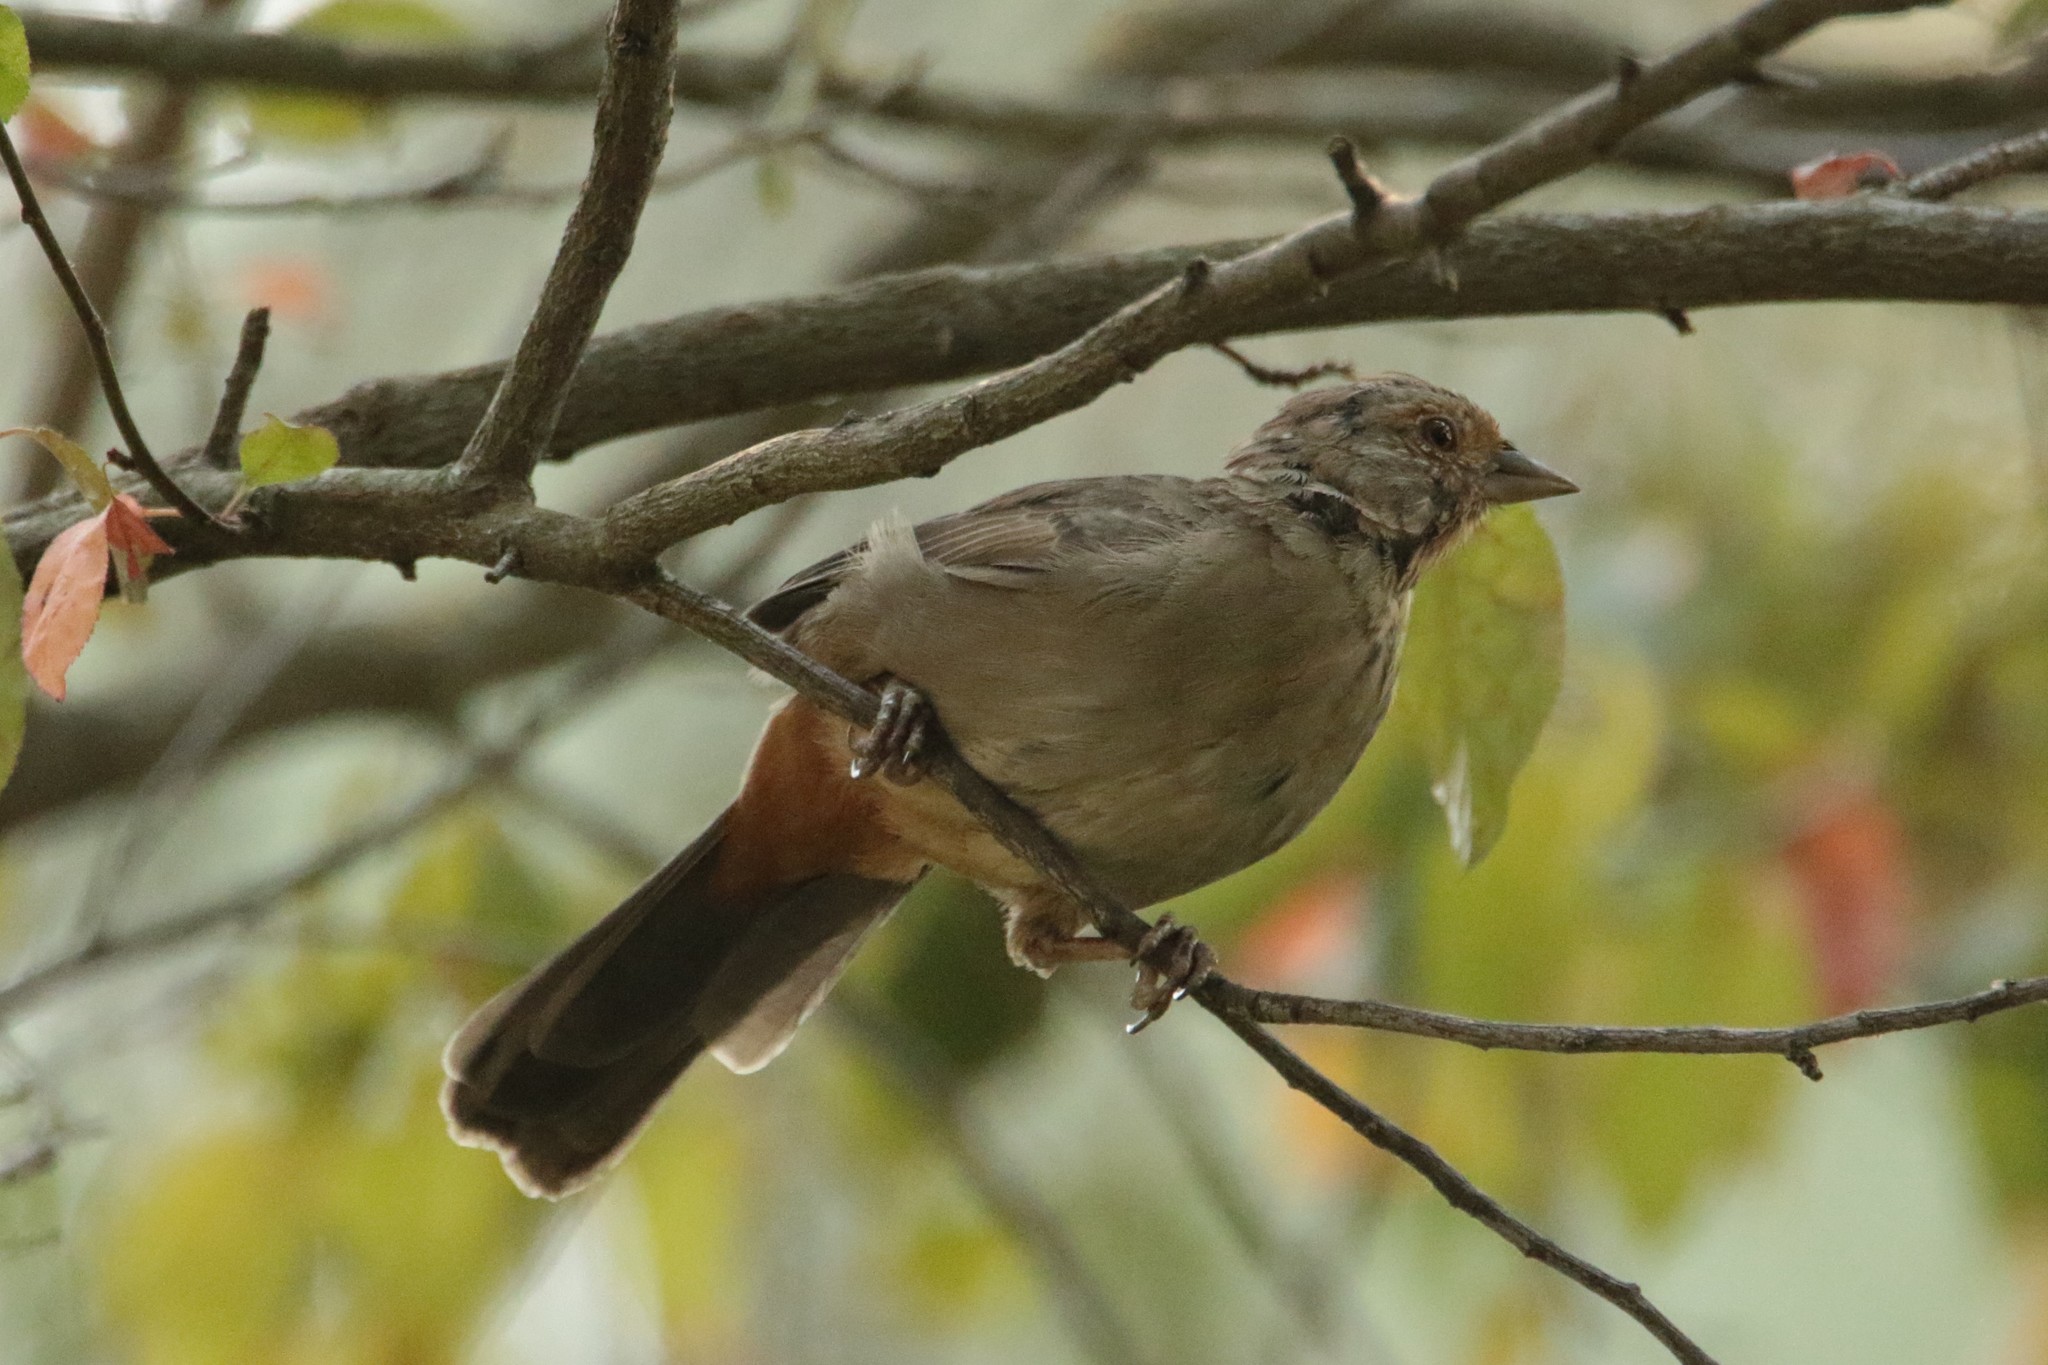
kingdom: Animalia
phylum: Chordata
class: Aves
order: Passeriformes
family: Passerellidae
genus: Melozone
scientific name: Melozone crissalis
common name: California towhee
